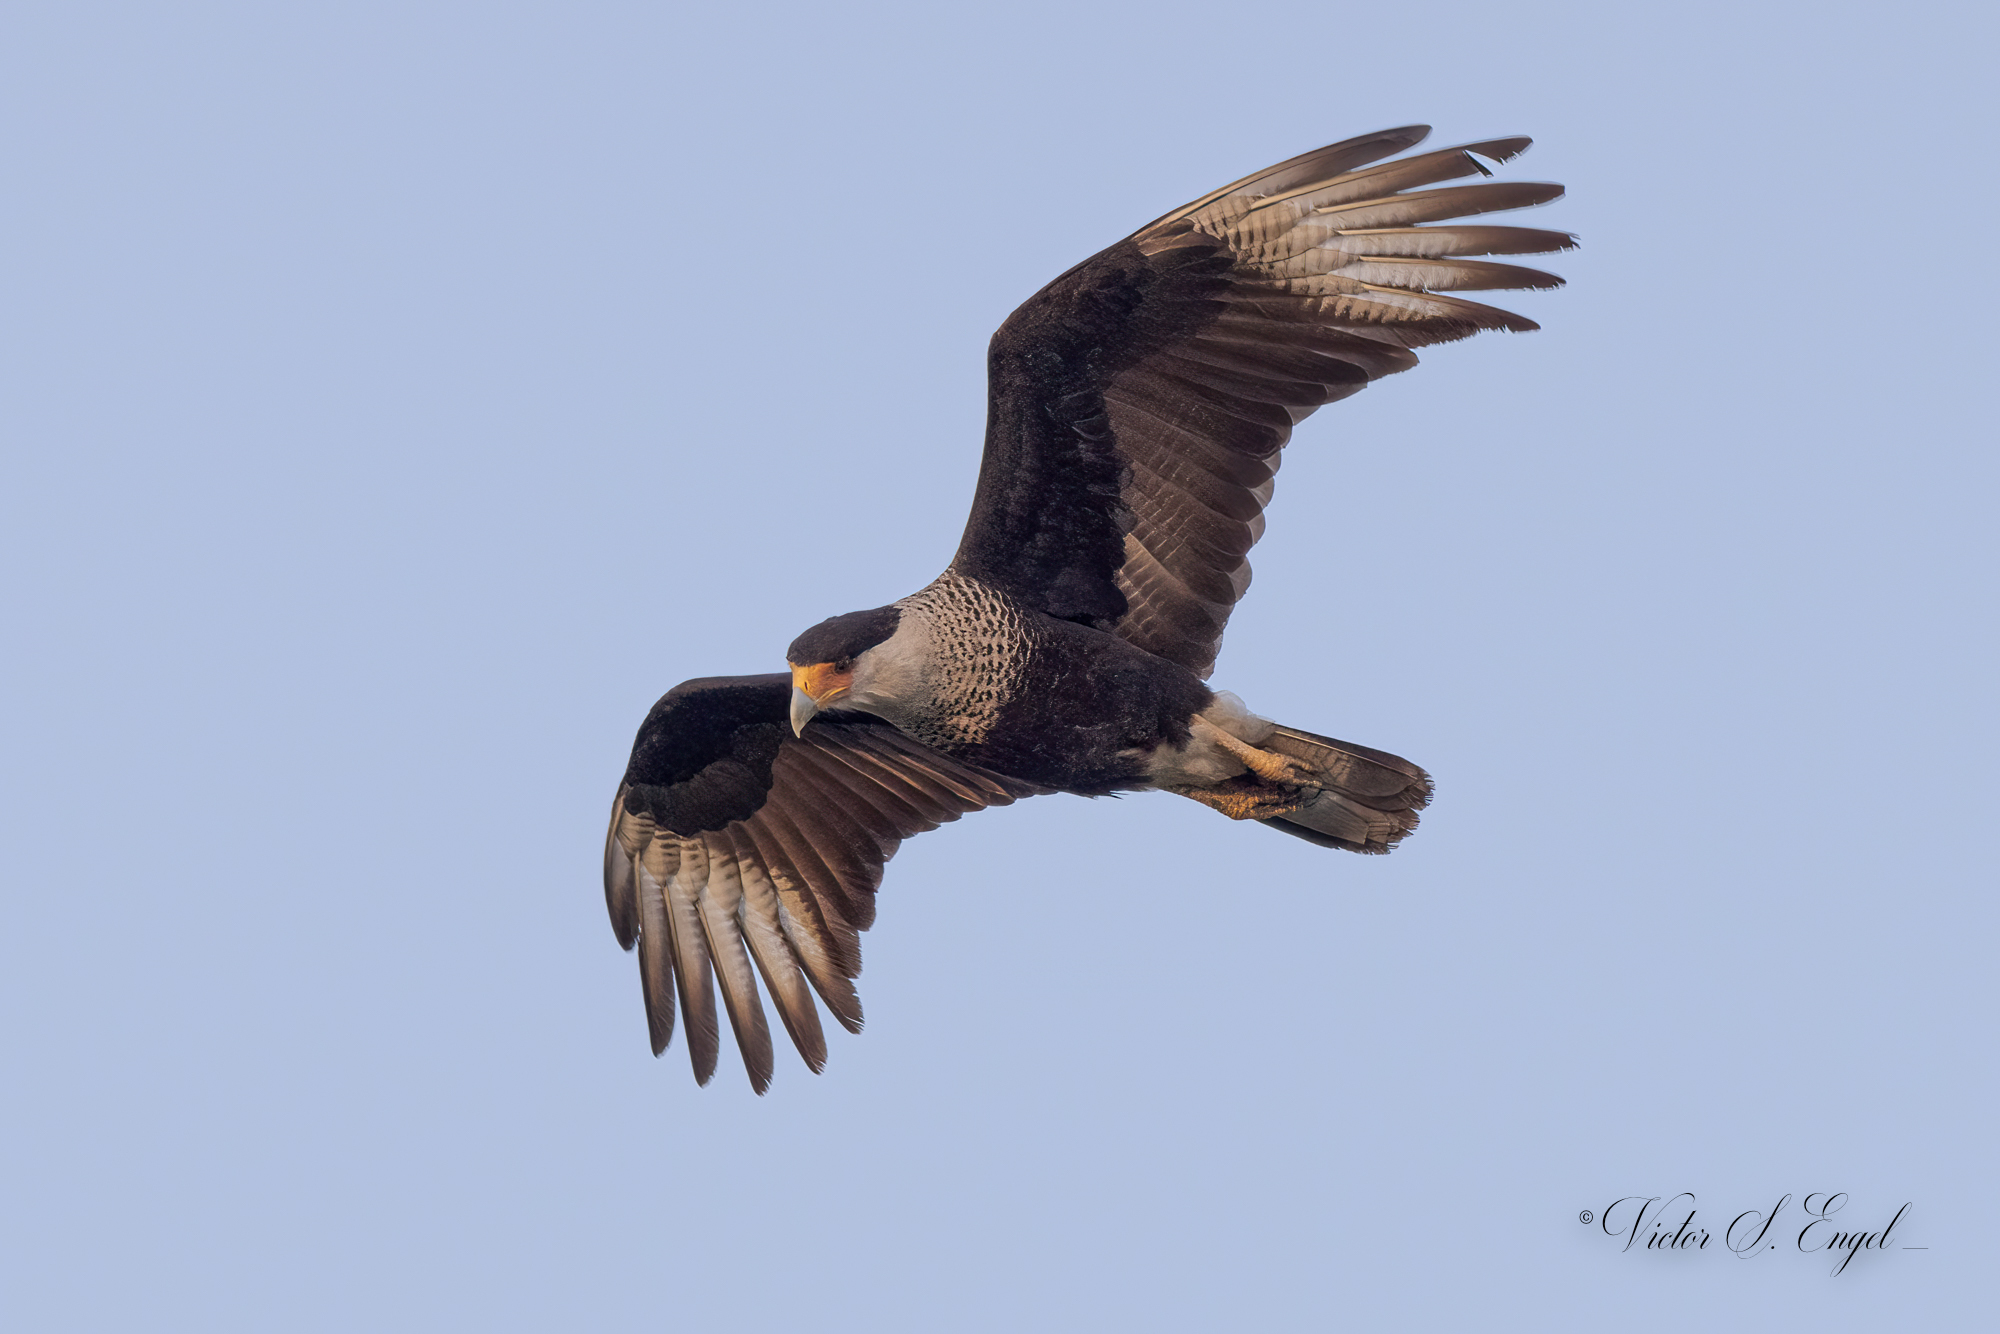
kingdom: Animalia
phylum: Chordata
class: Aves
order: Falconiformes
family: Falconidae
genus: Caracara
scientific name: Caracara plancus
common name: Southern caracara
